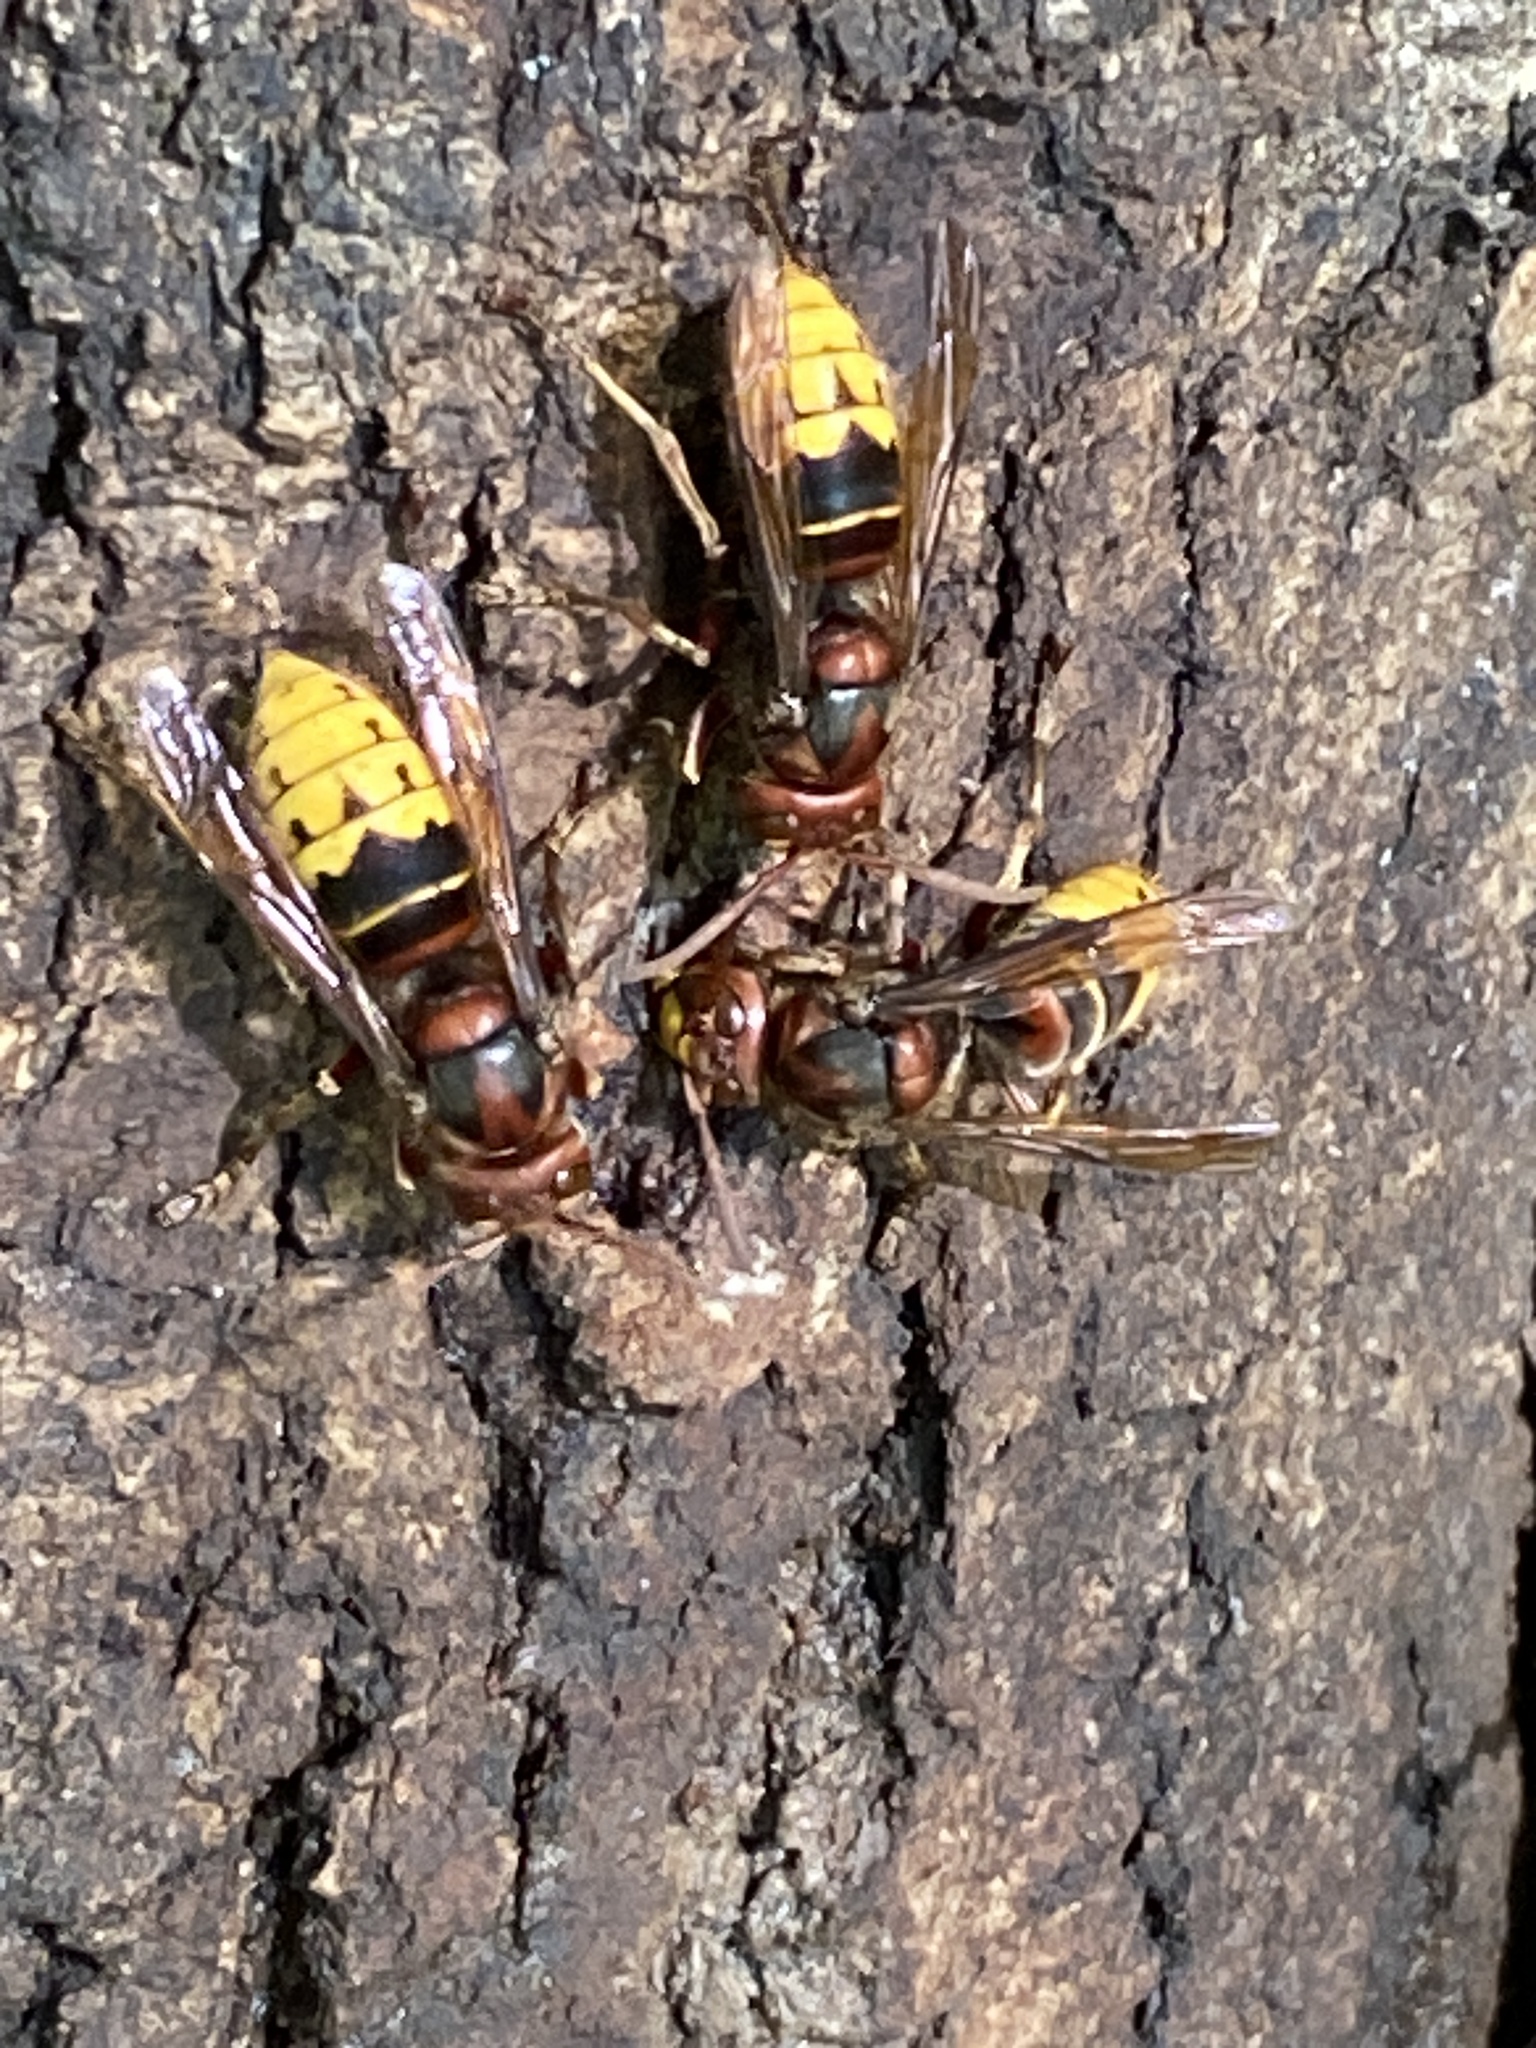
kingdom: Animalia
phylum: Arthropoda
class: Insecta
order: Hymenoptera
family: Vespidae
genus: Vespa
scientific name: Vespa crabro
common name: Hornet
